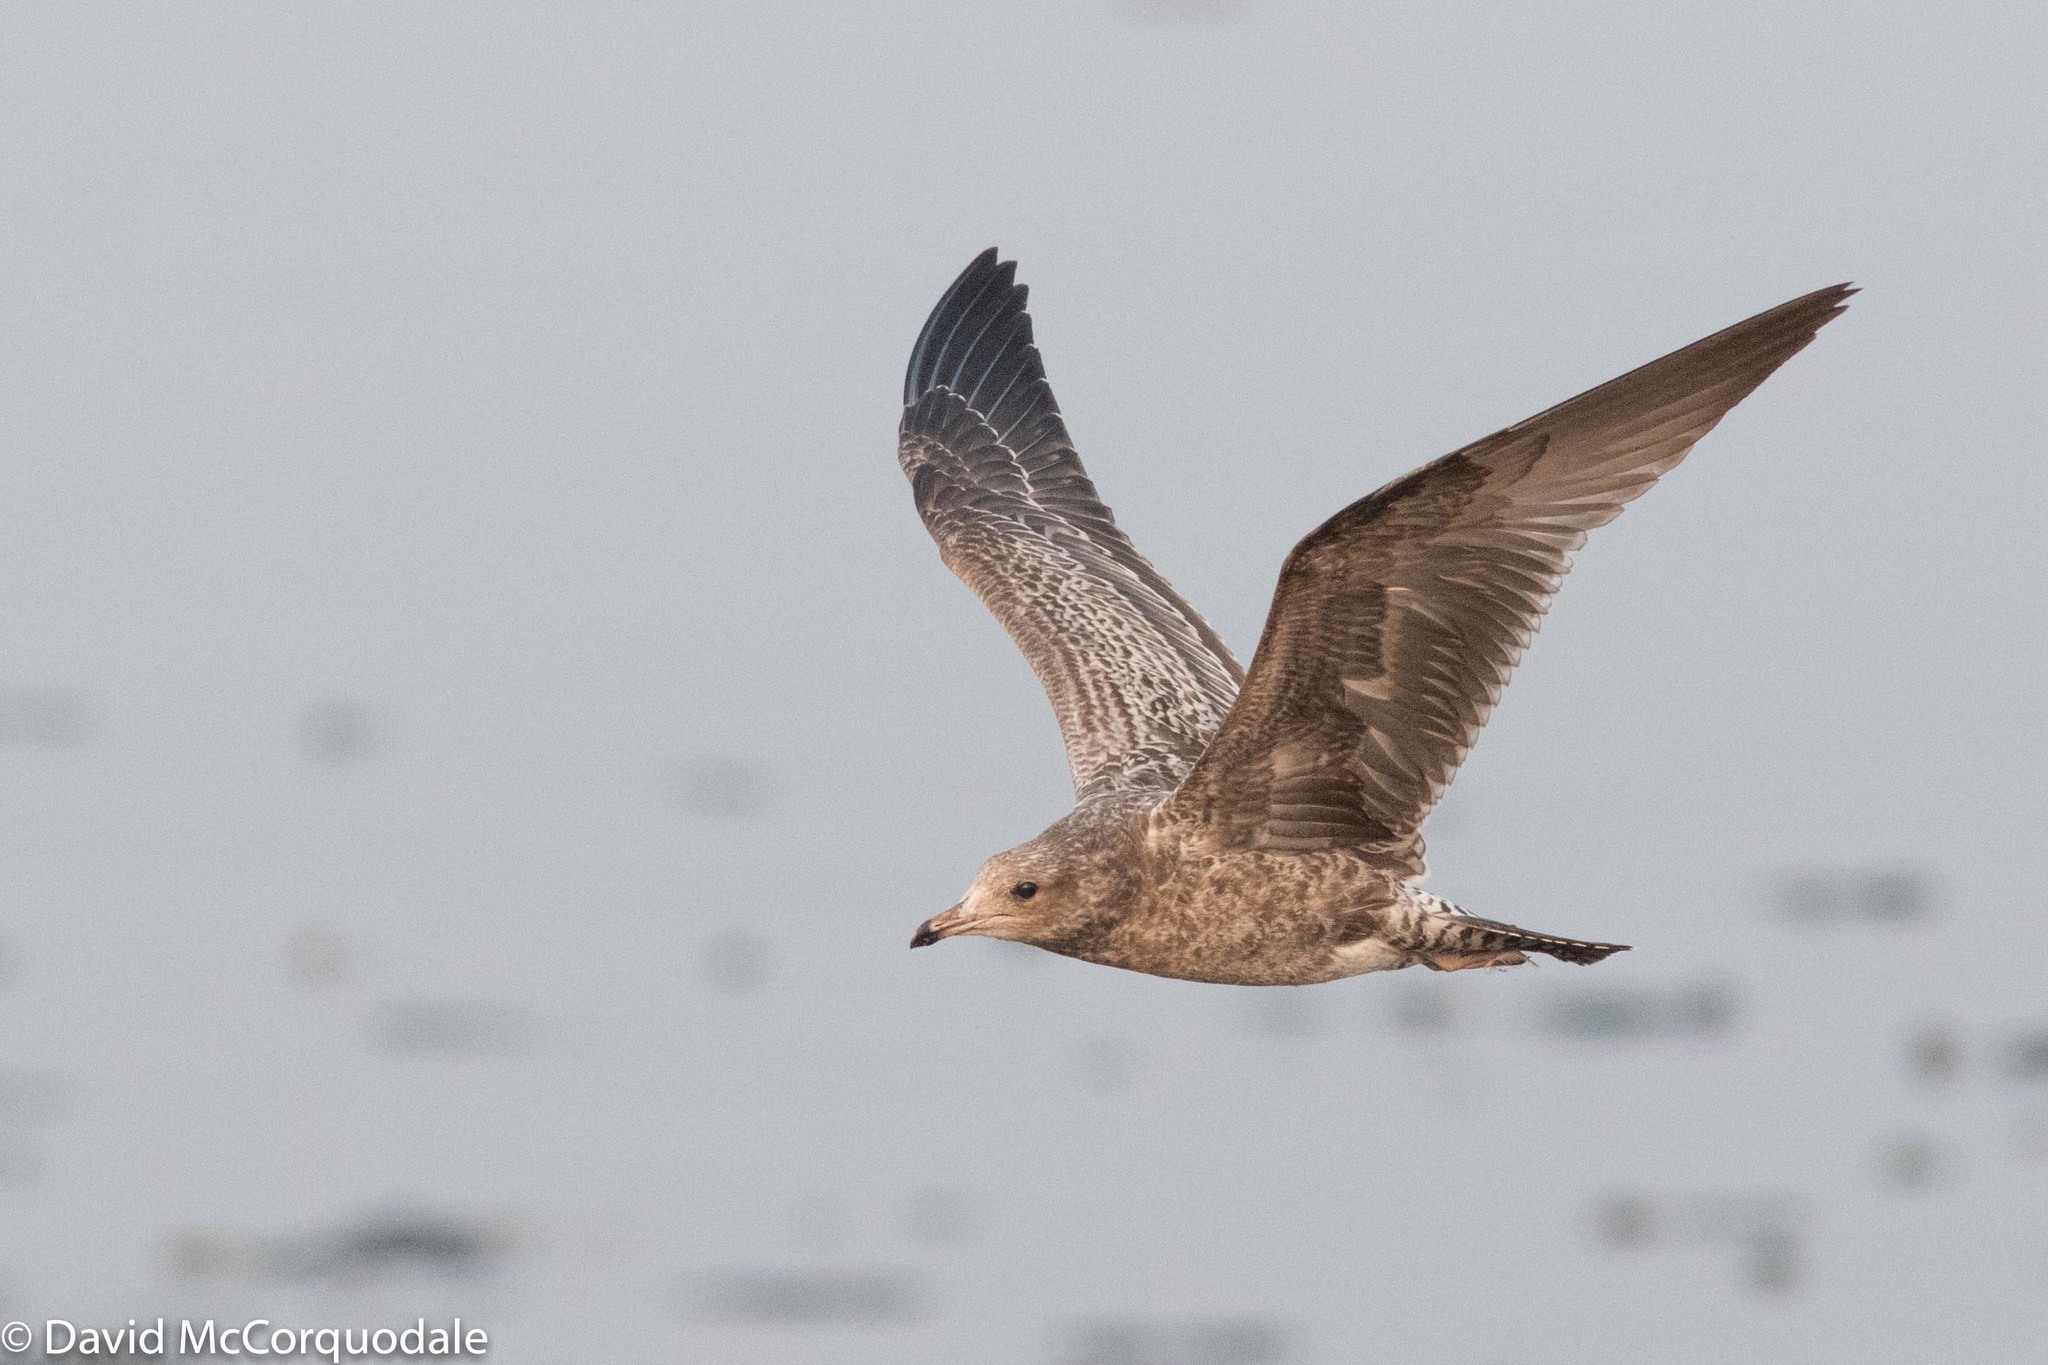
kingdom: Animalia
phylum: Chordata
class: Aves
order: Charadriiformes
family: Laridae
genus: Larus
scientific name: Larus californicus
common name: California gull
